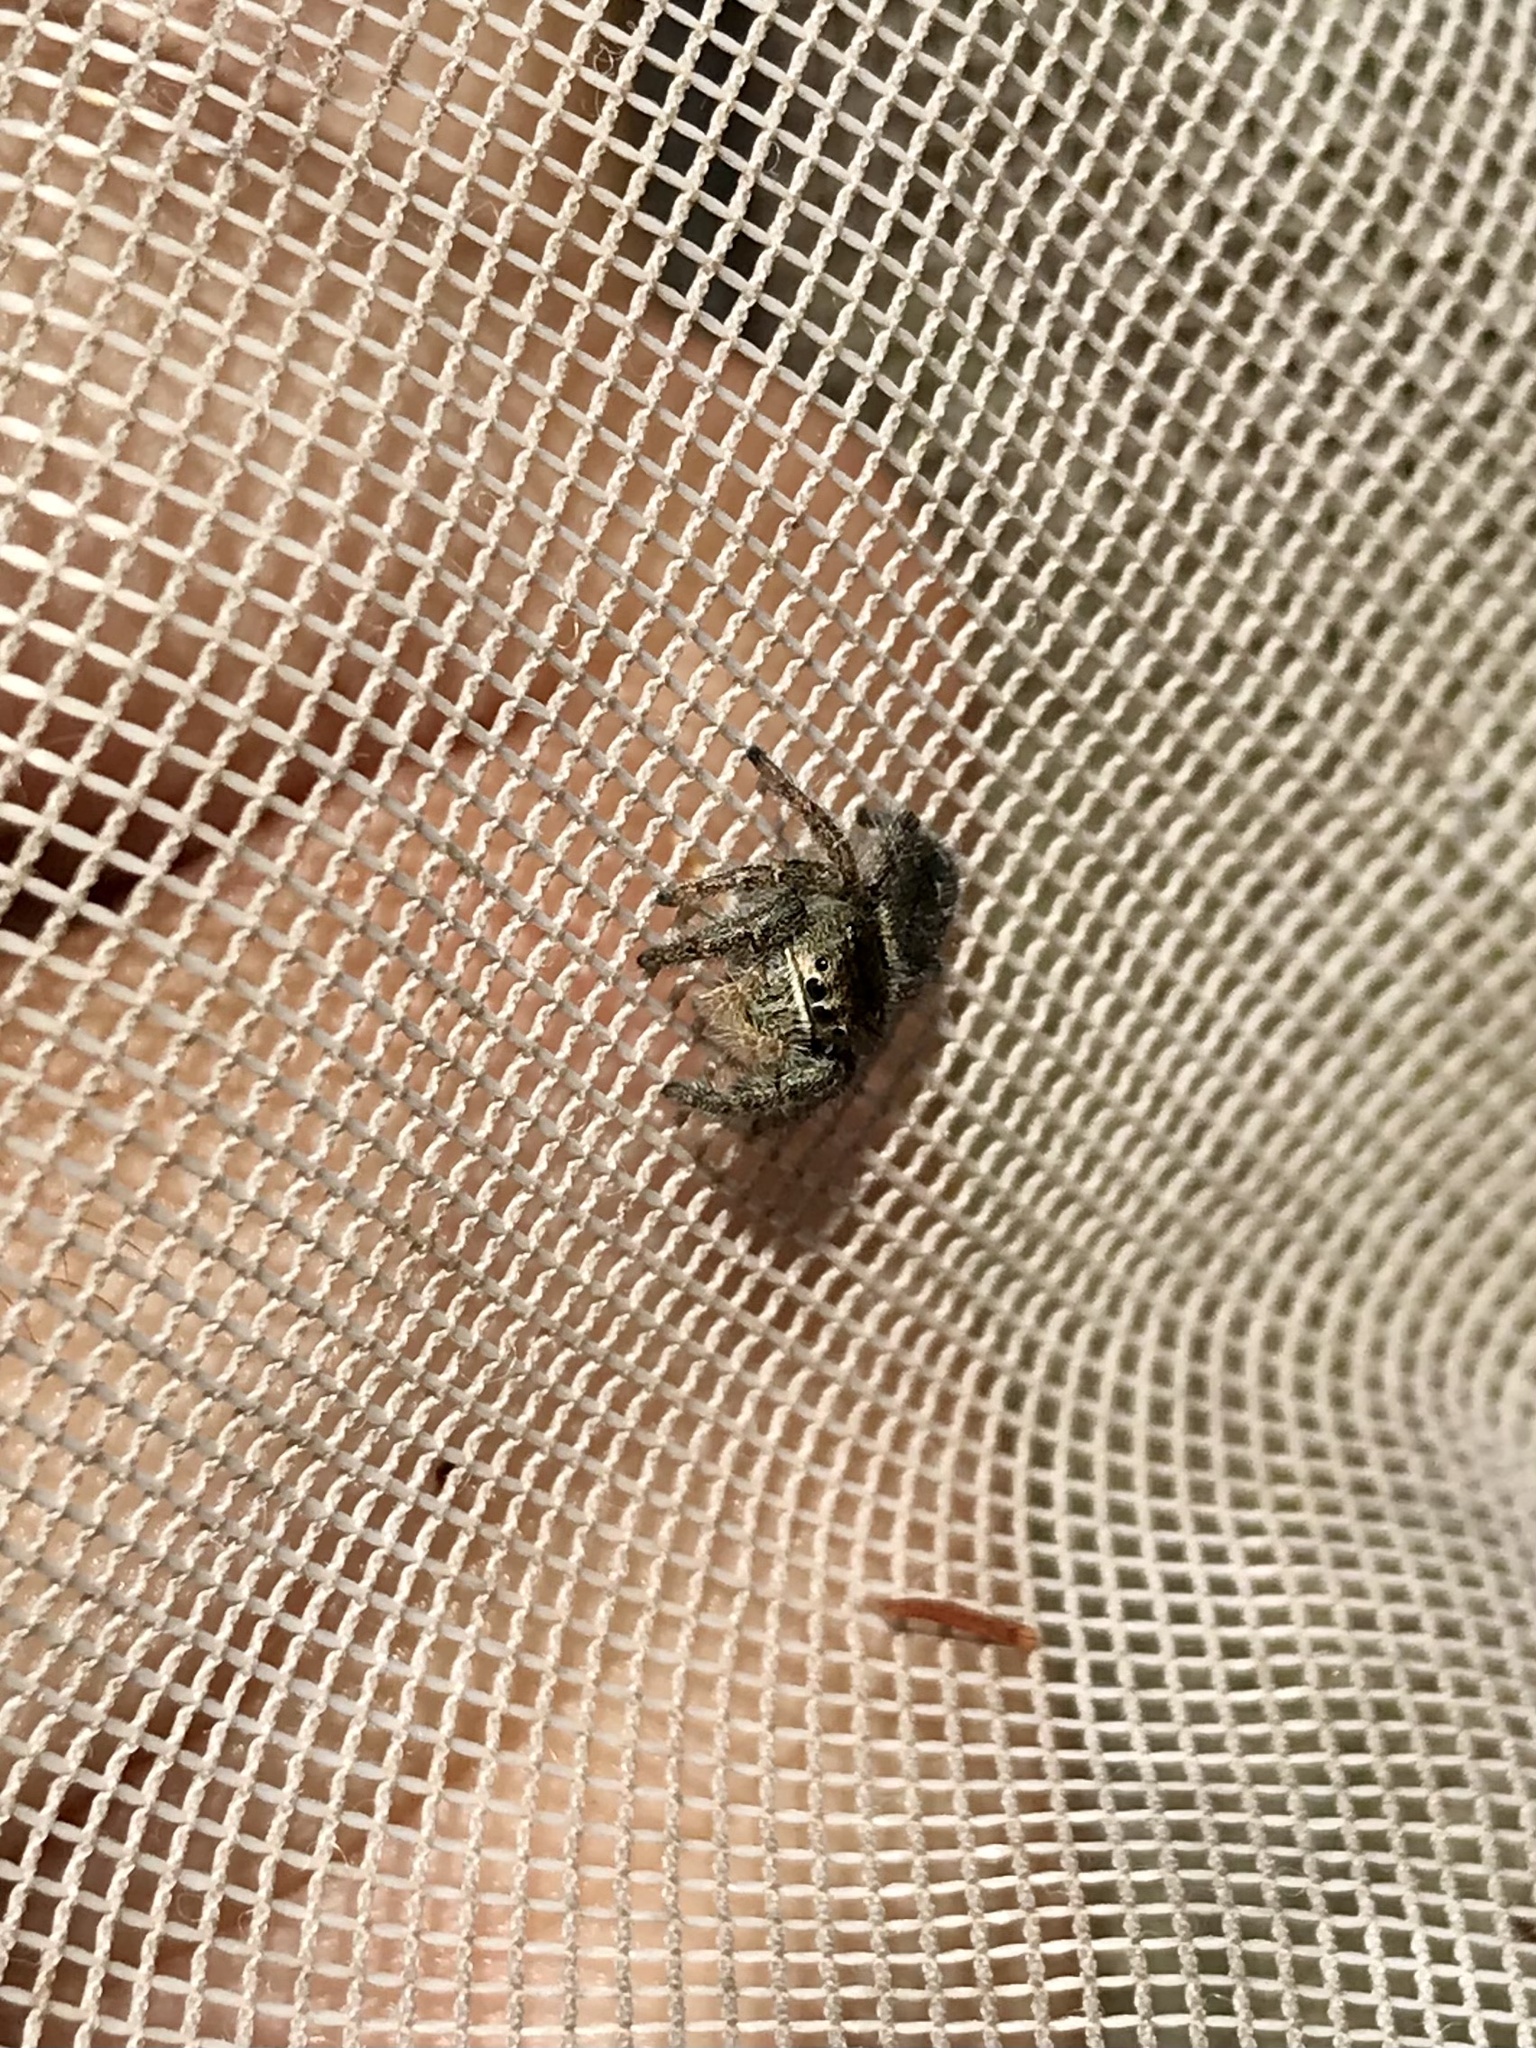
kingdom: Animalia
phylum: Arthropoda
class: Arachnida
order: Araneae
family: Salticidae
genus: Phidippus
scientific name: Phidippus cryptus
